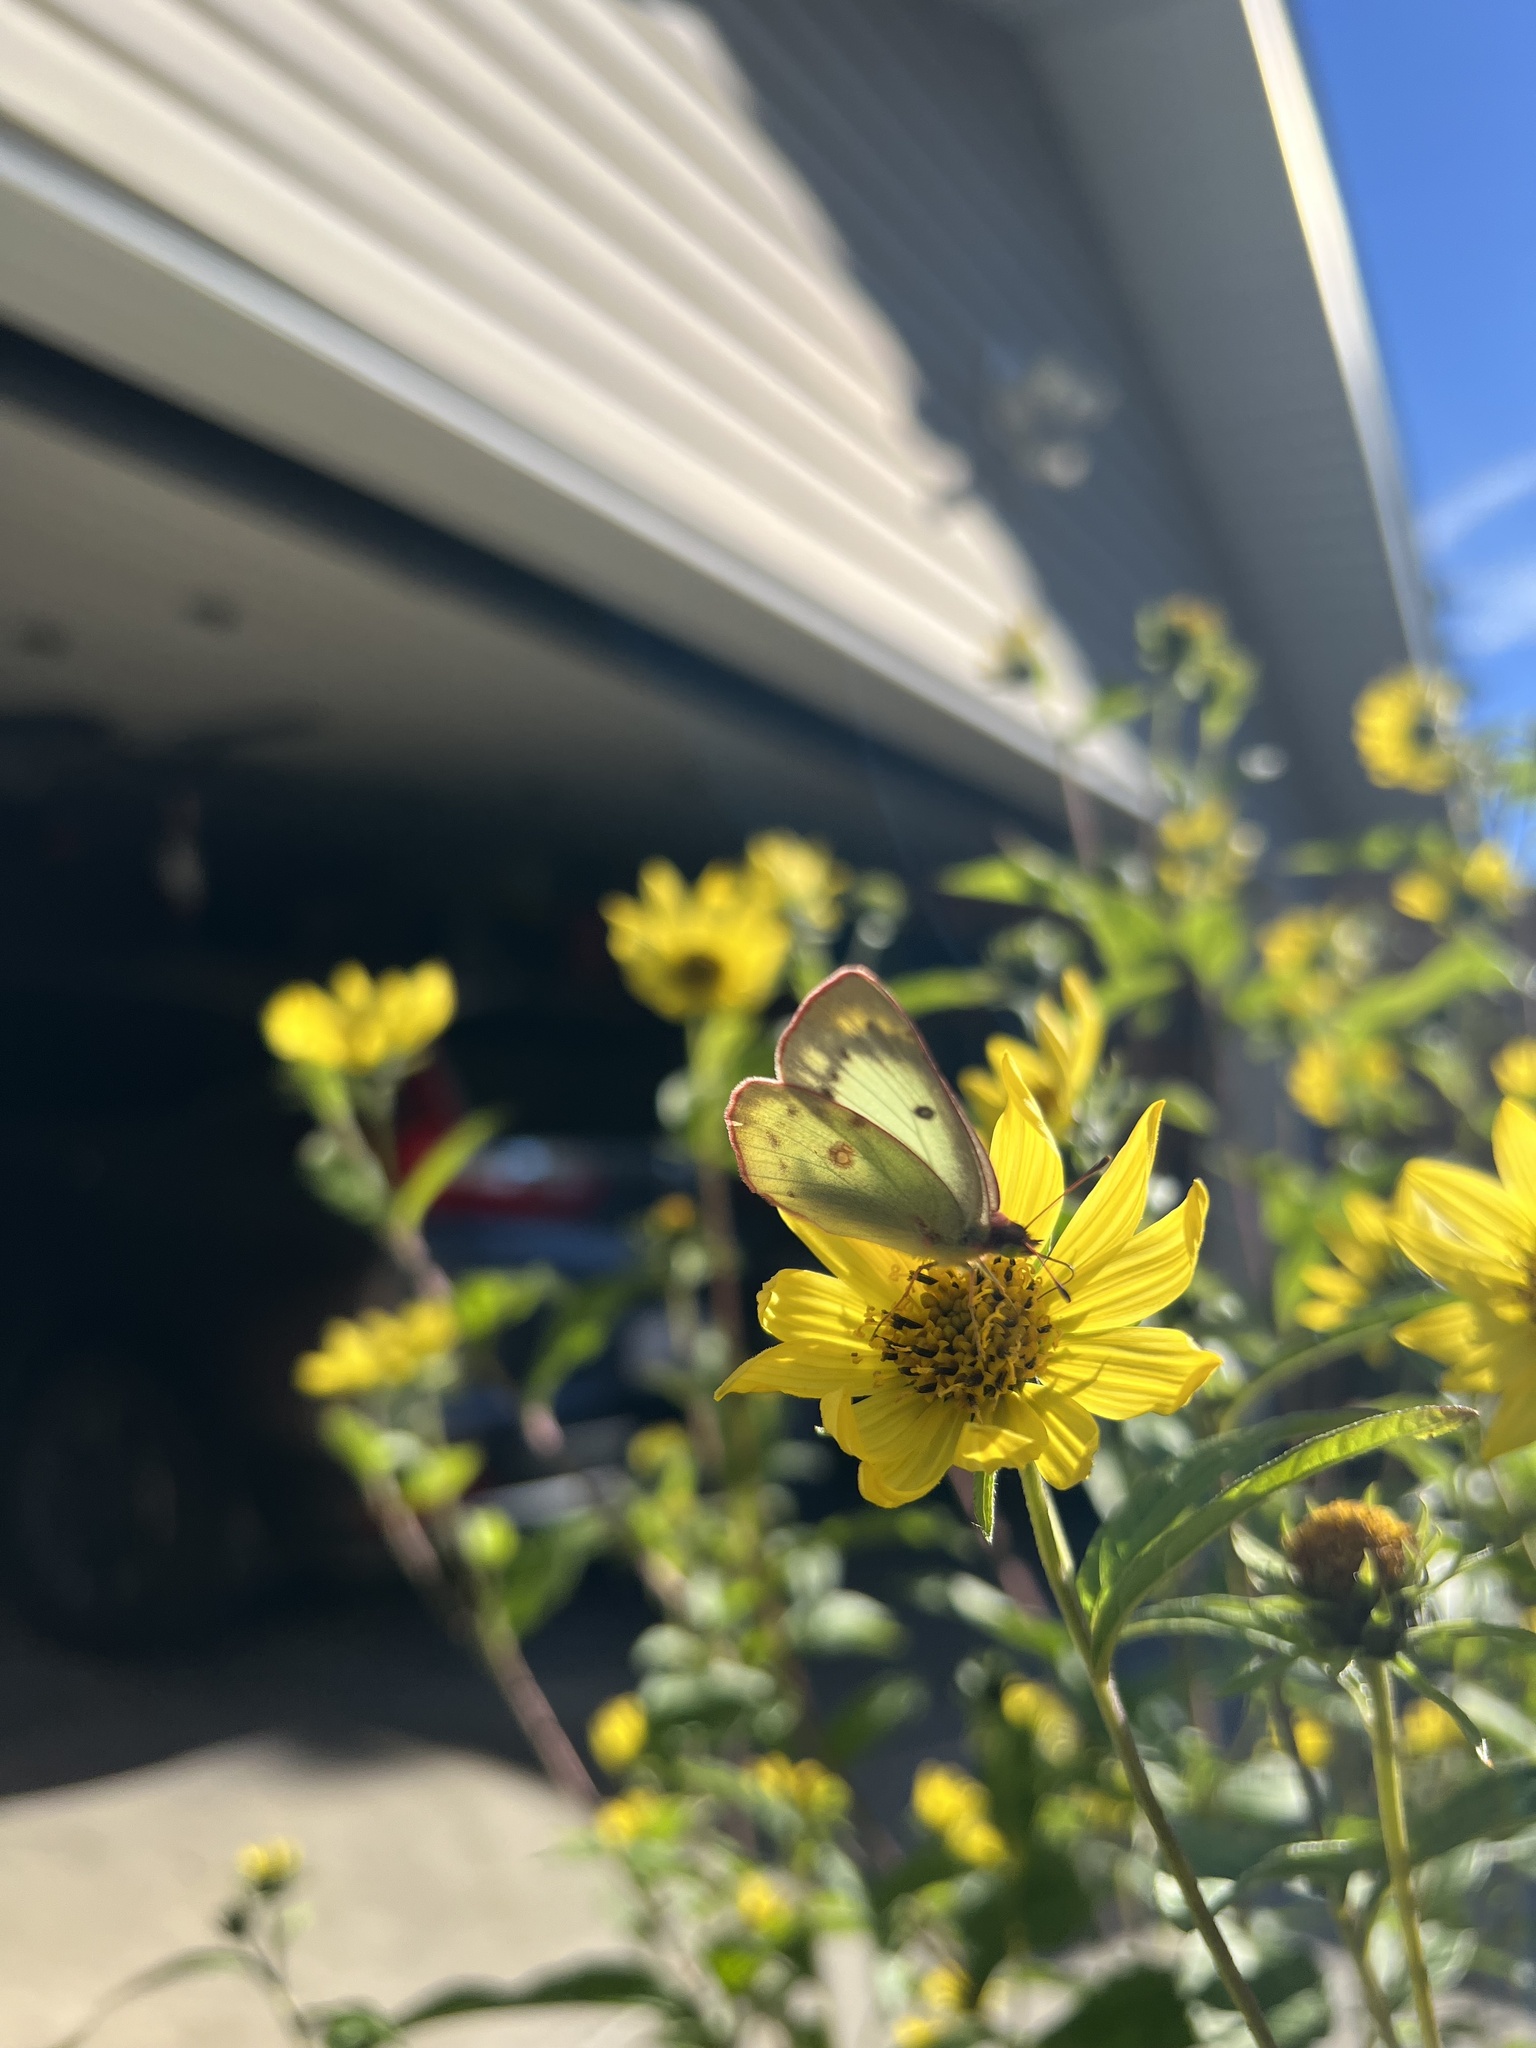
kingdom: Animalia
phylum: Arthropoda
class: Insecta
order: Lepidoptera
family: Pieridae
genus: Colias
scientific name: Colias philodice
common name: Clouded sulphur
